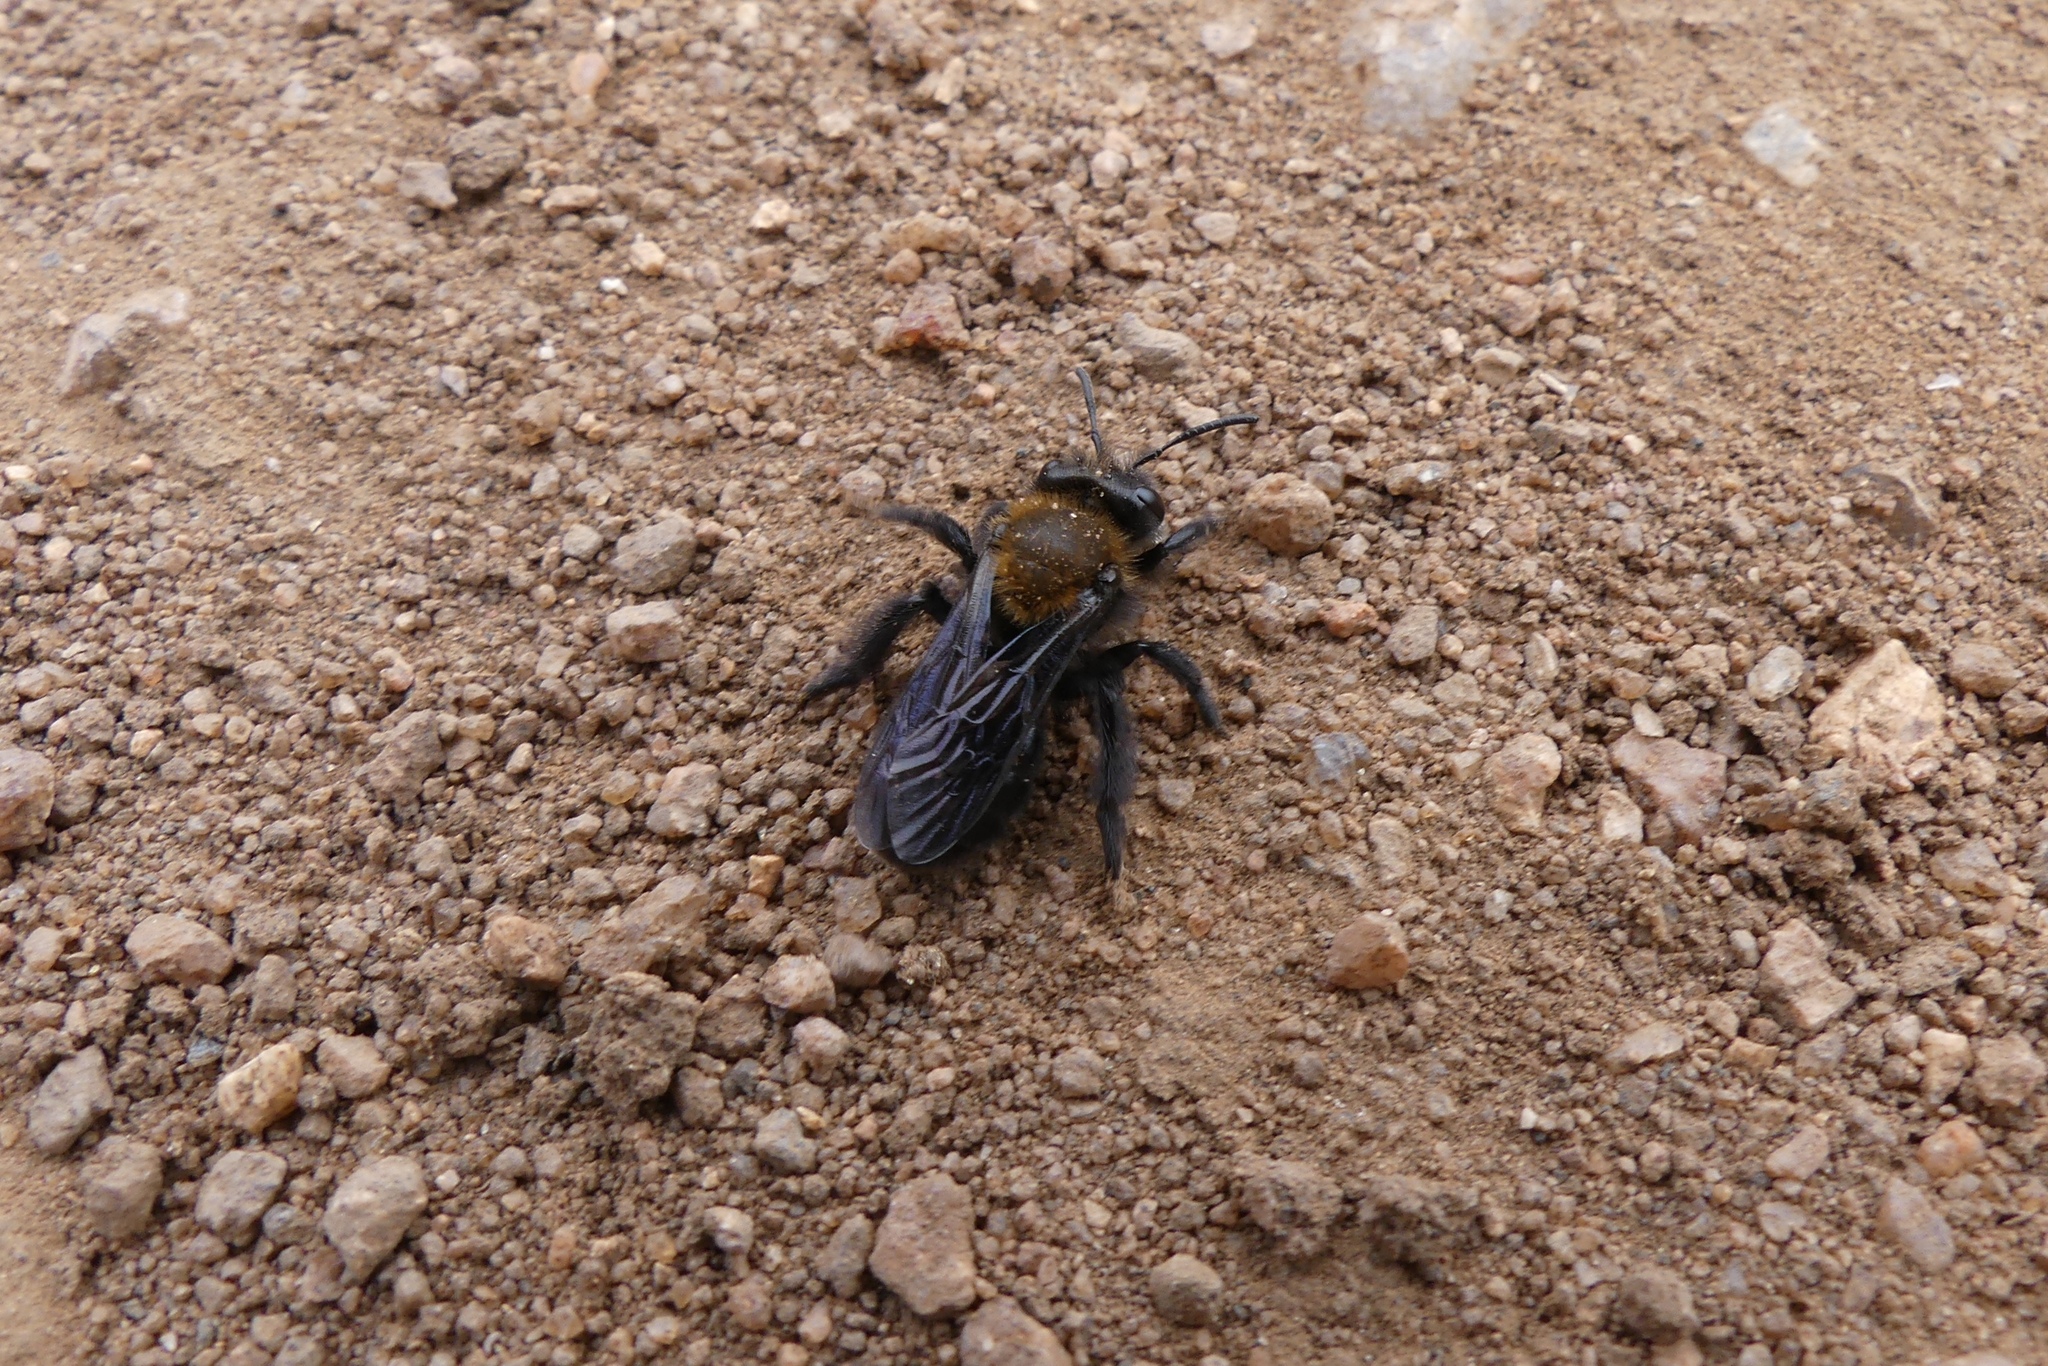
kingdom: Animalia
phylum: Arthropoda
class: Insecta
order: Hymenoptera
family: Andrenidae
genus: Andrena
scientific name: Andrena
